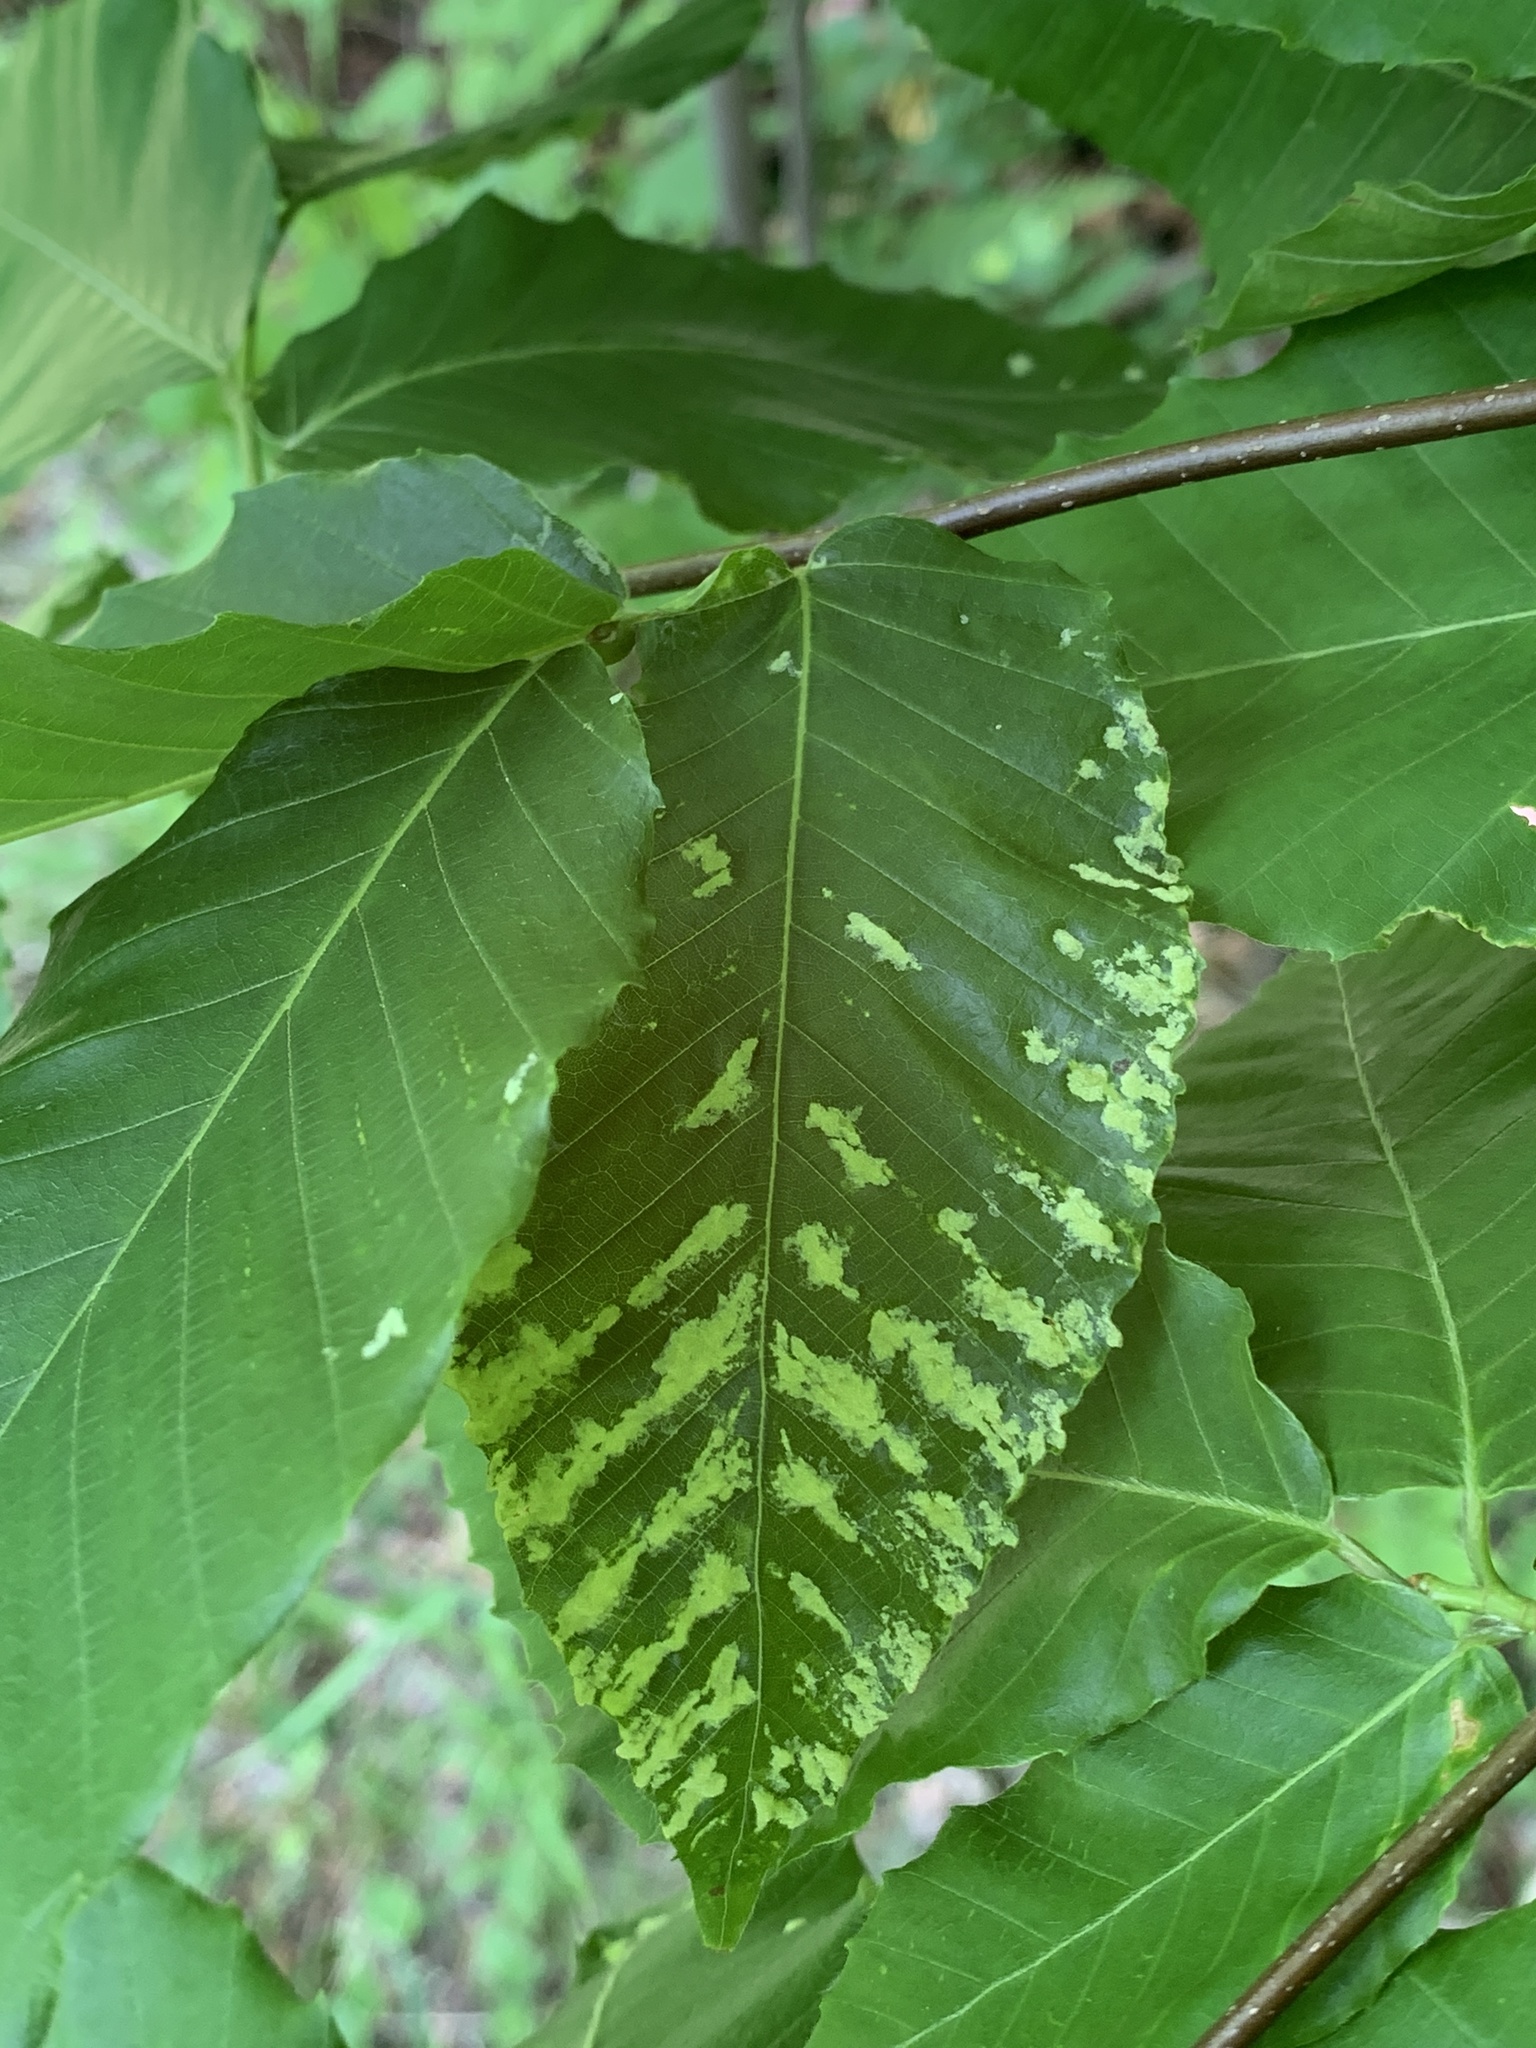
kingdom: Animalia
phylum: Arthropoda
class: Arachnida
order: Trombidiformes
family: Eriophyidae
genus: Acalitus
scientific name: Acalitus
